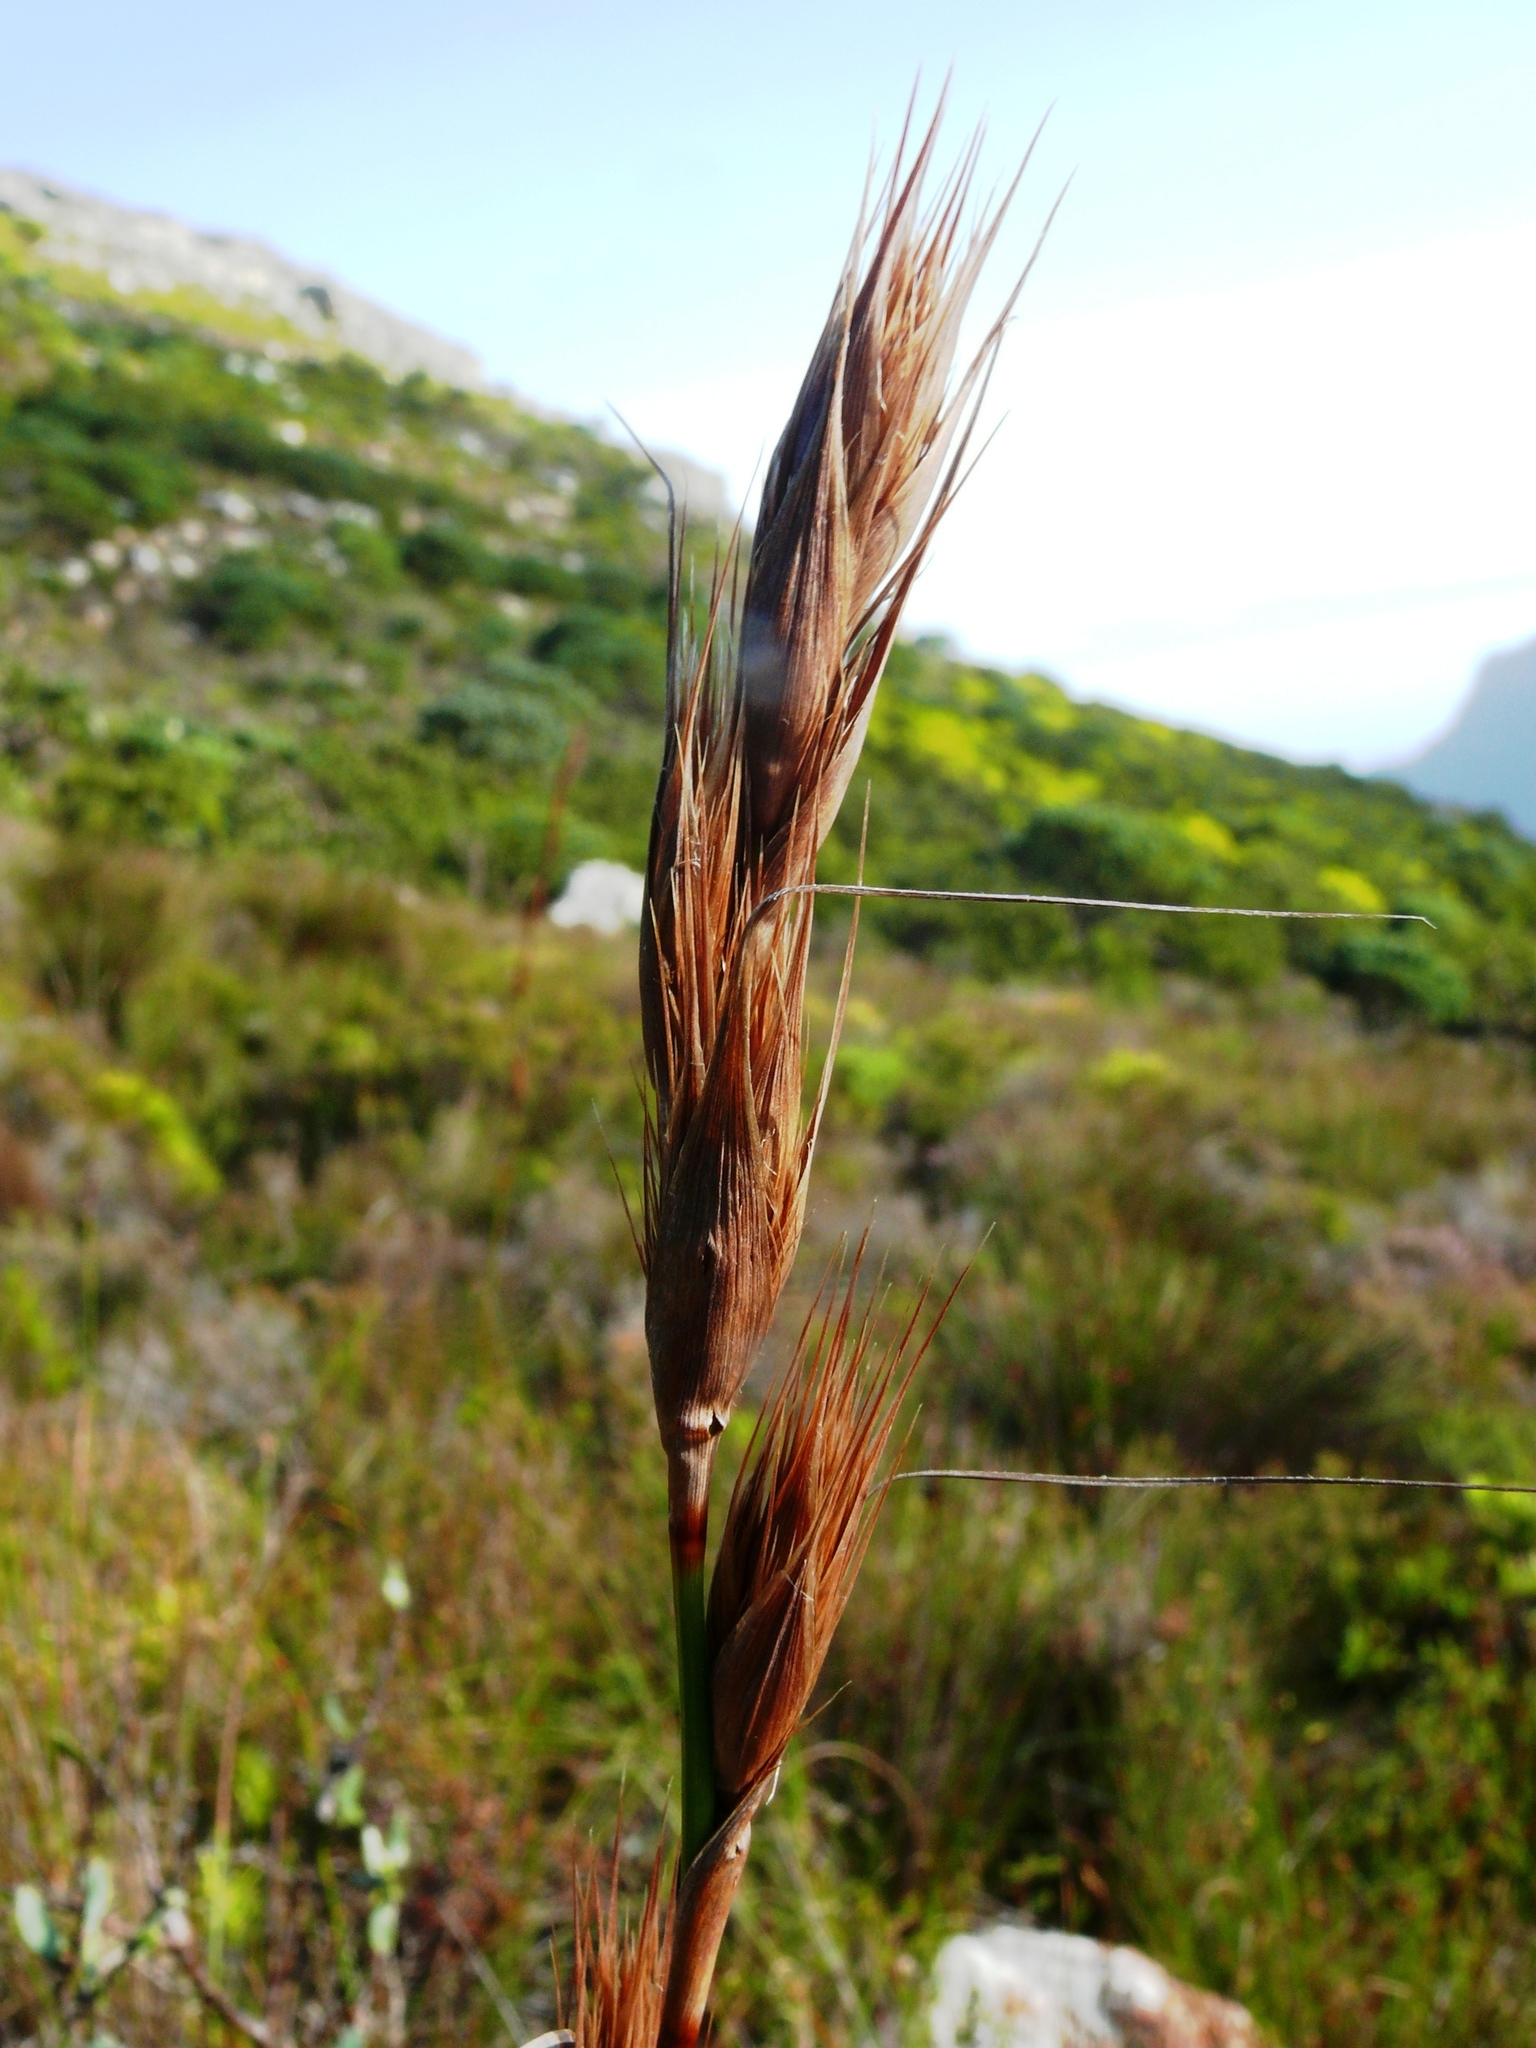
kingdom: Plantae
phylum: Tracheophyta
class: Liliopsida
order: Poales
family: Cyperaceae
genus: Tetraria
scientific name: Tetraria bromoides
